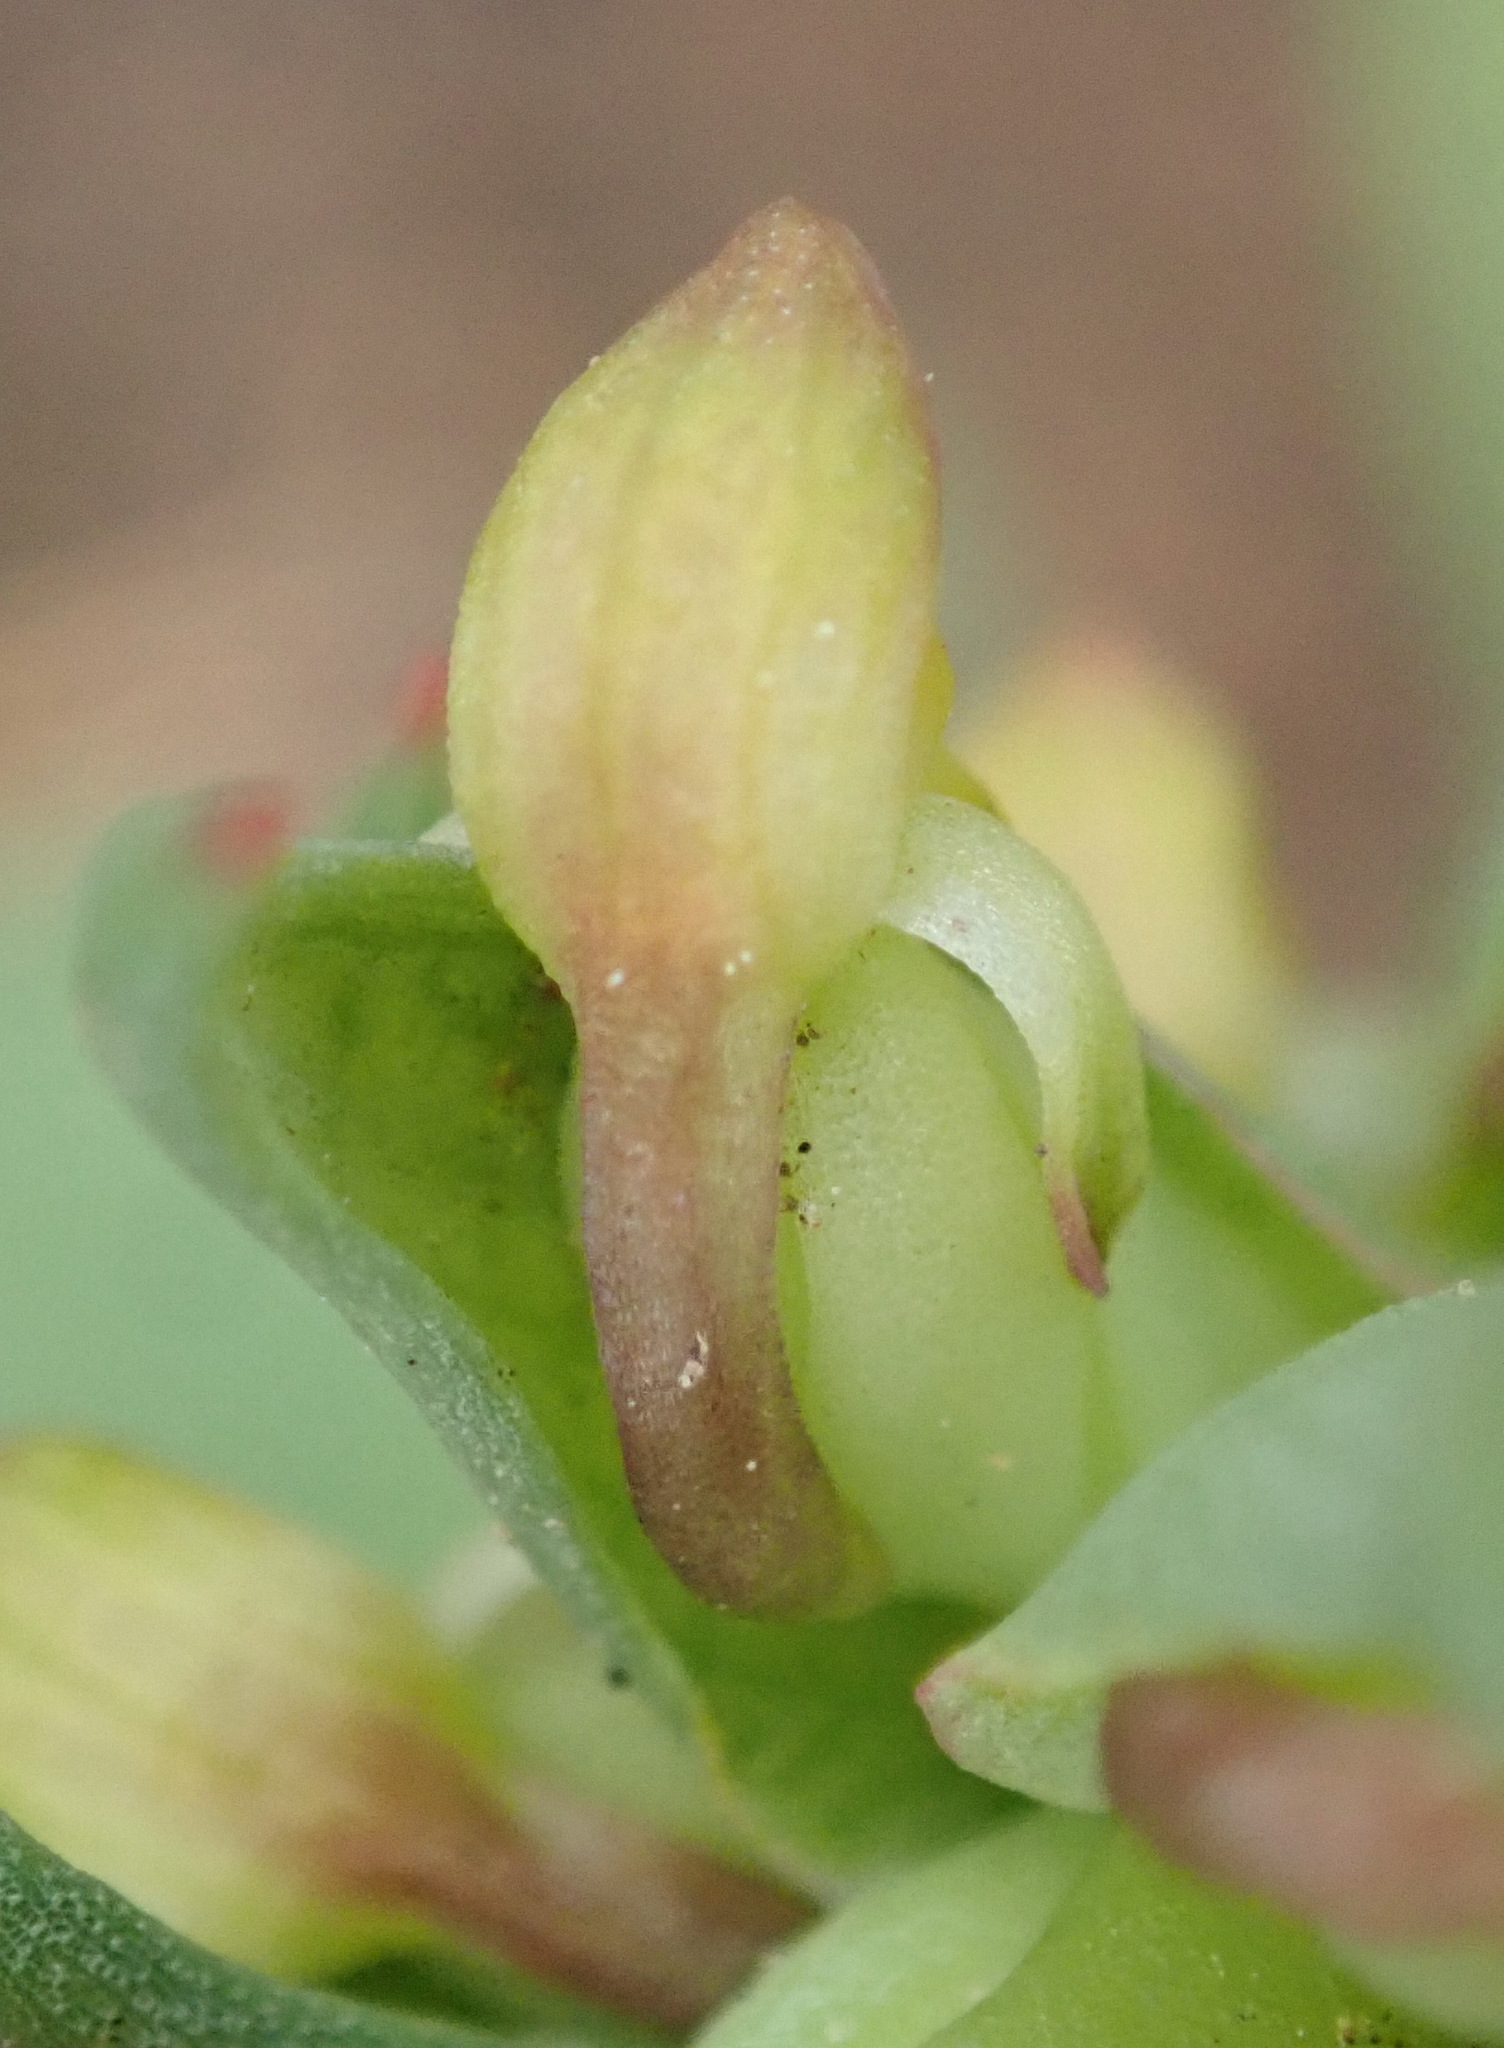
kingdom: Plantae
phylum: Tracheophyta
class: Liliopsida
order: Asparagales
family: Orchidaceae
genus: Disa
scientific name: Disa bracteata
